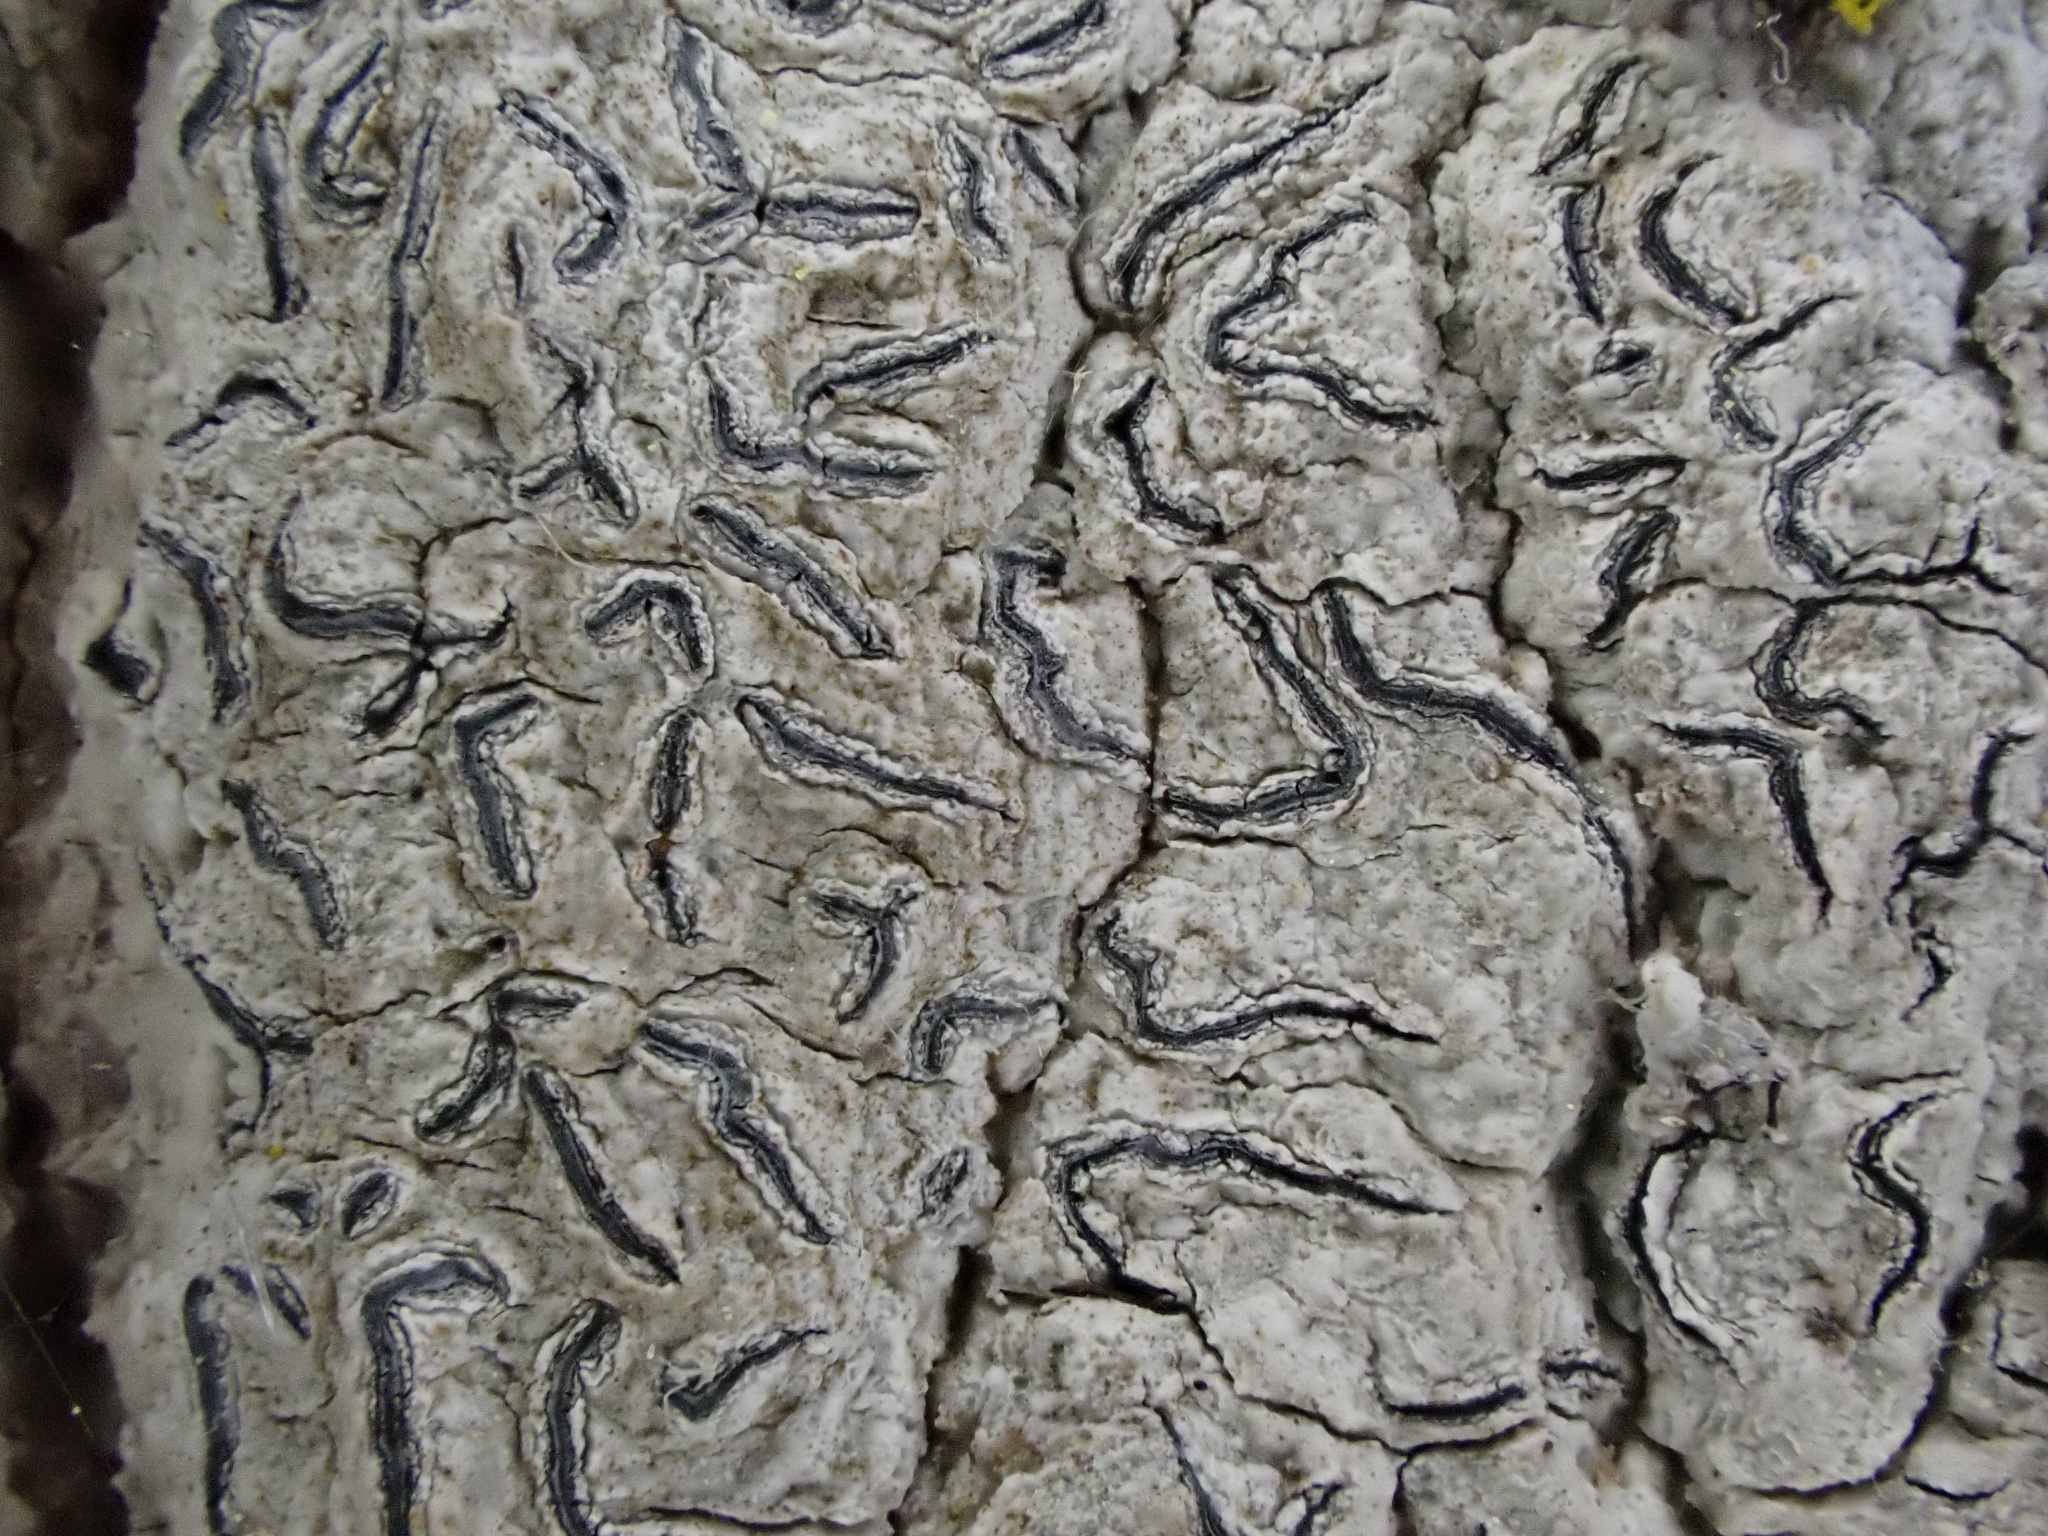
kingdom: Fungi
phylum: Ascomycota
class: Lecanoromycetes
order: Ostropales
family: Graphidaceae
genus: Graphis
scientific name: Graphis scripta
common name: Script lichen
